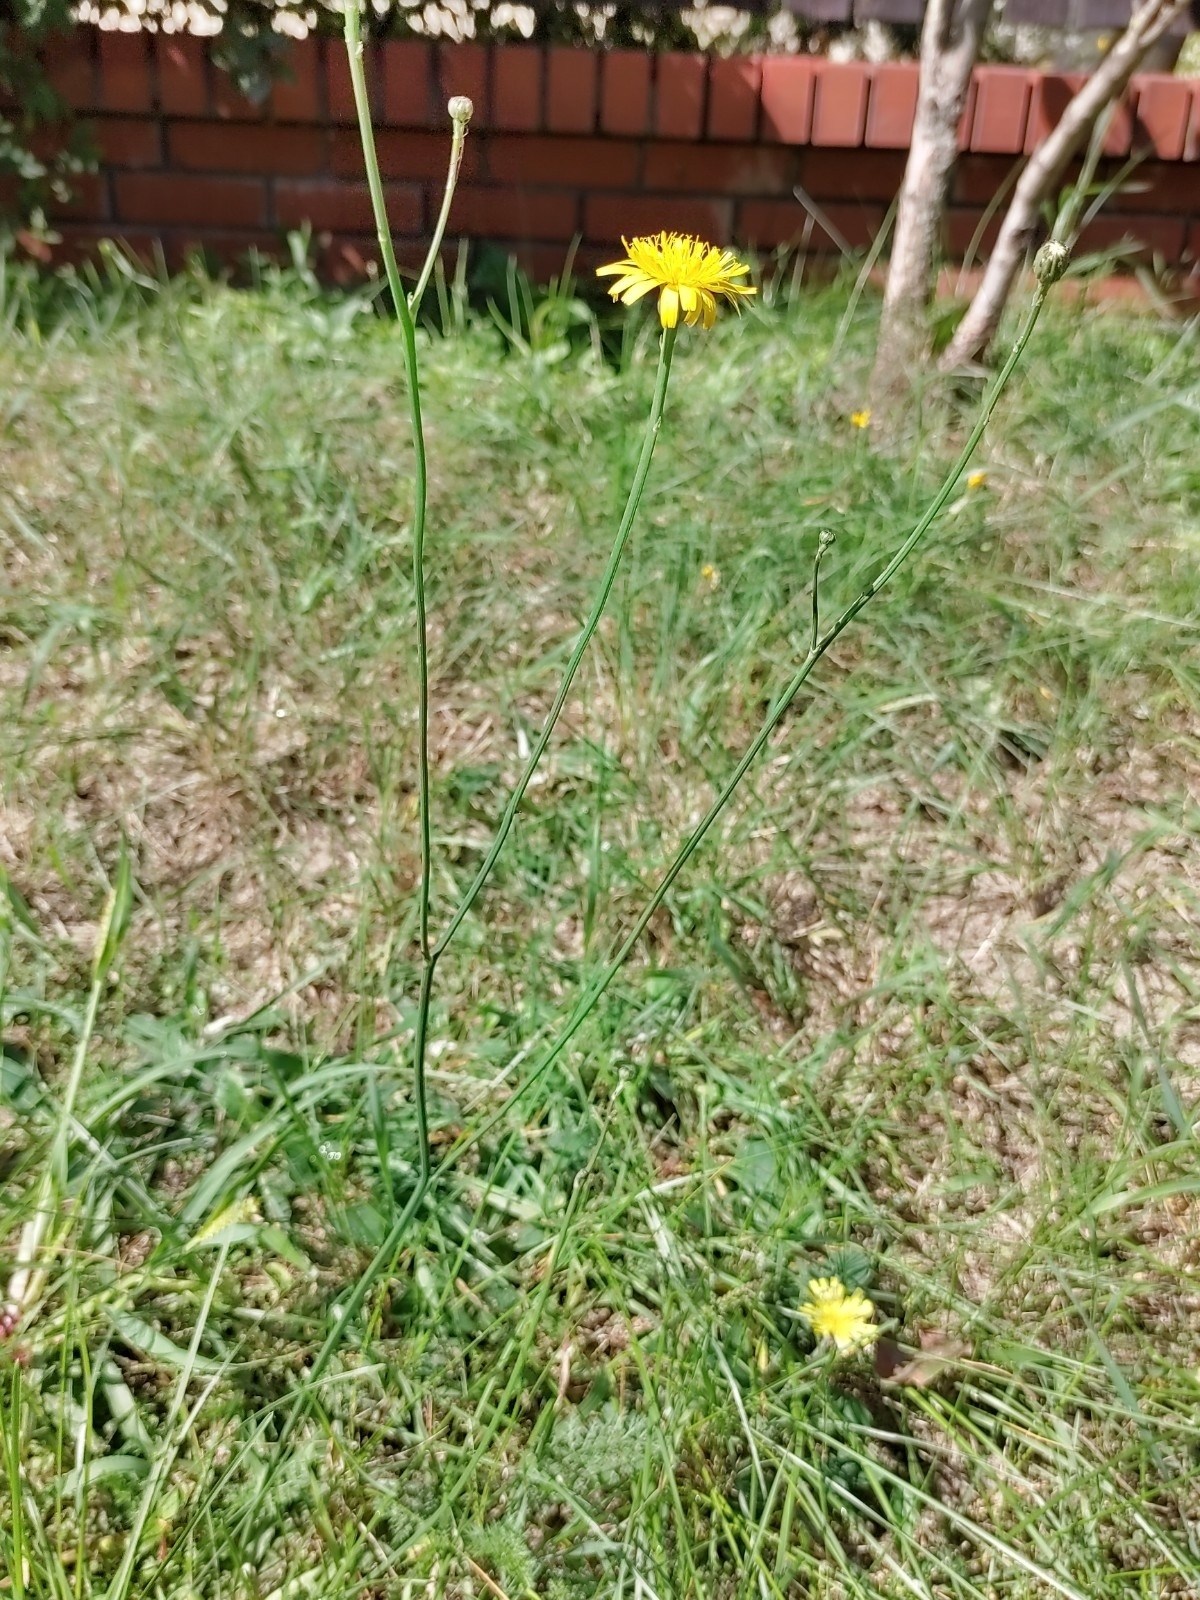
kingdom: Plantae
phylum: Tracheophyta
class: Magnoliopsida
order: Asterales
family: Asteraceae
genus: Scorzoneroides
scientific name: Scorzoneroides autumnalis
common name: Autumn hawkbit
